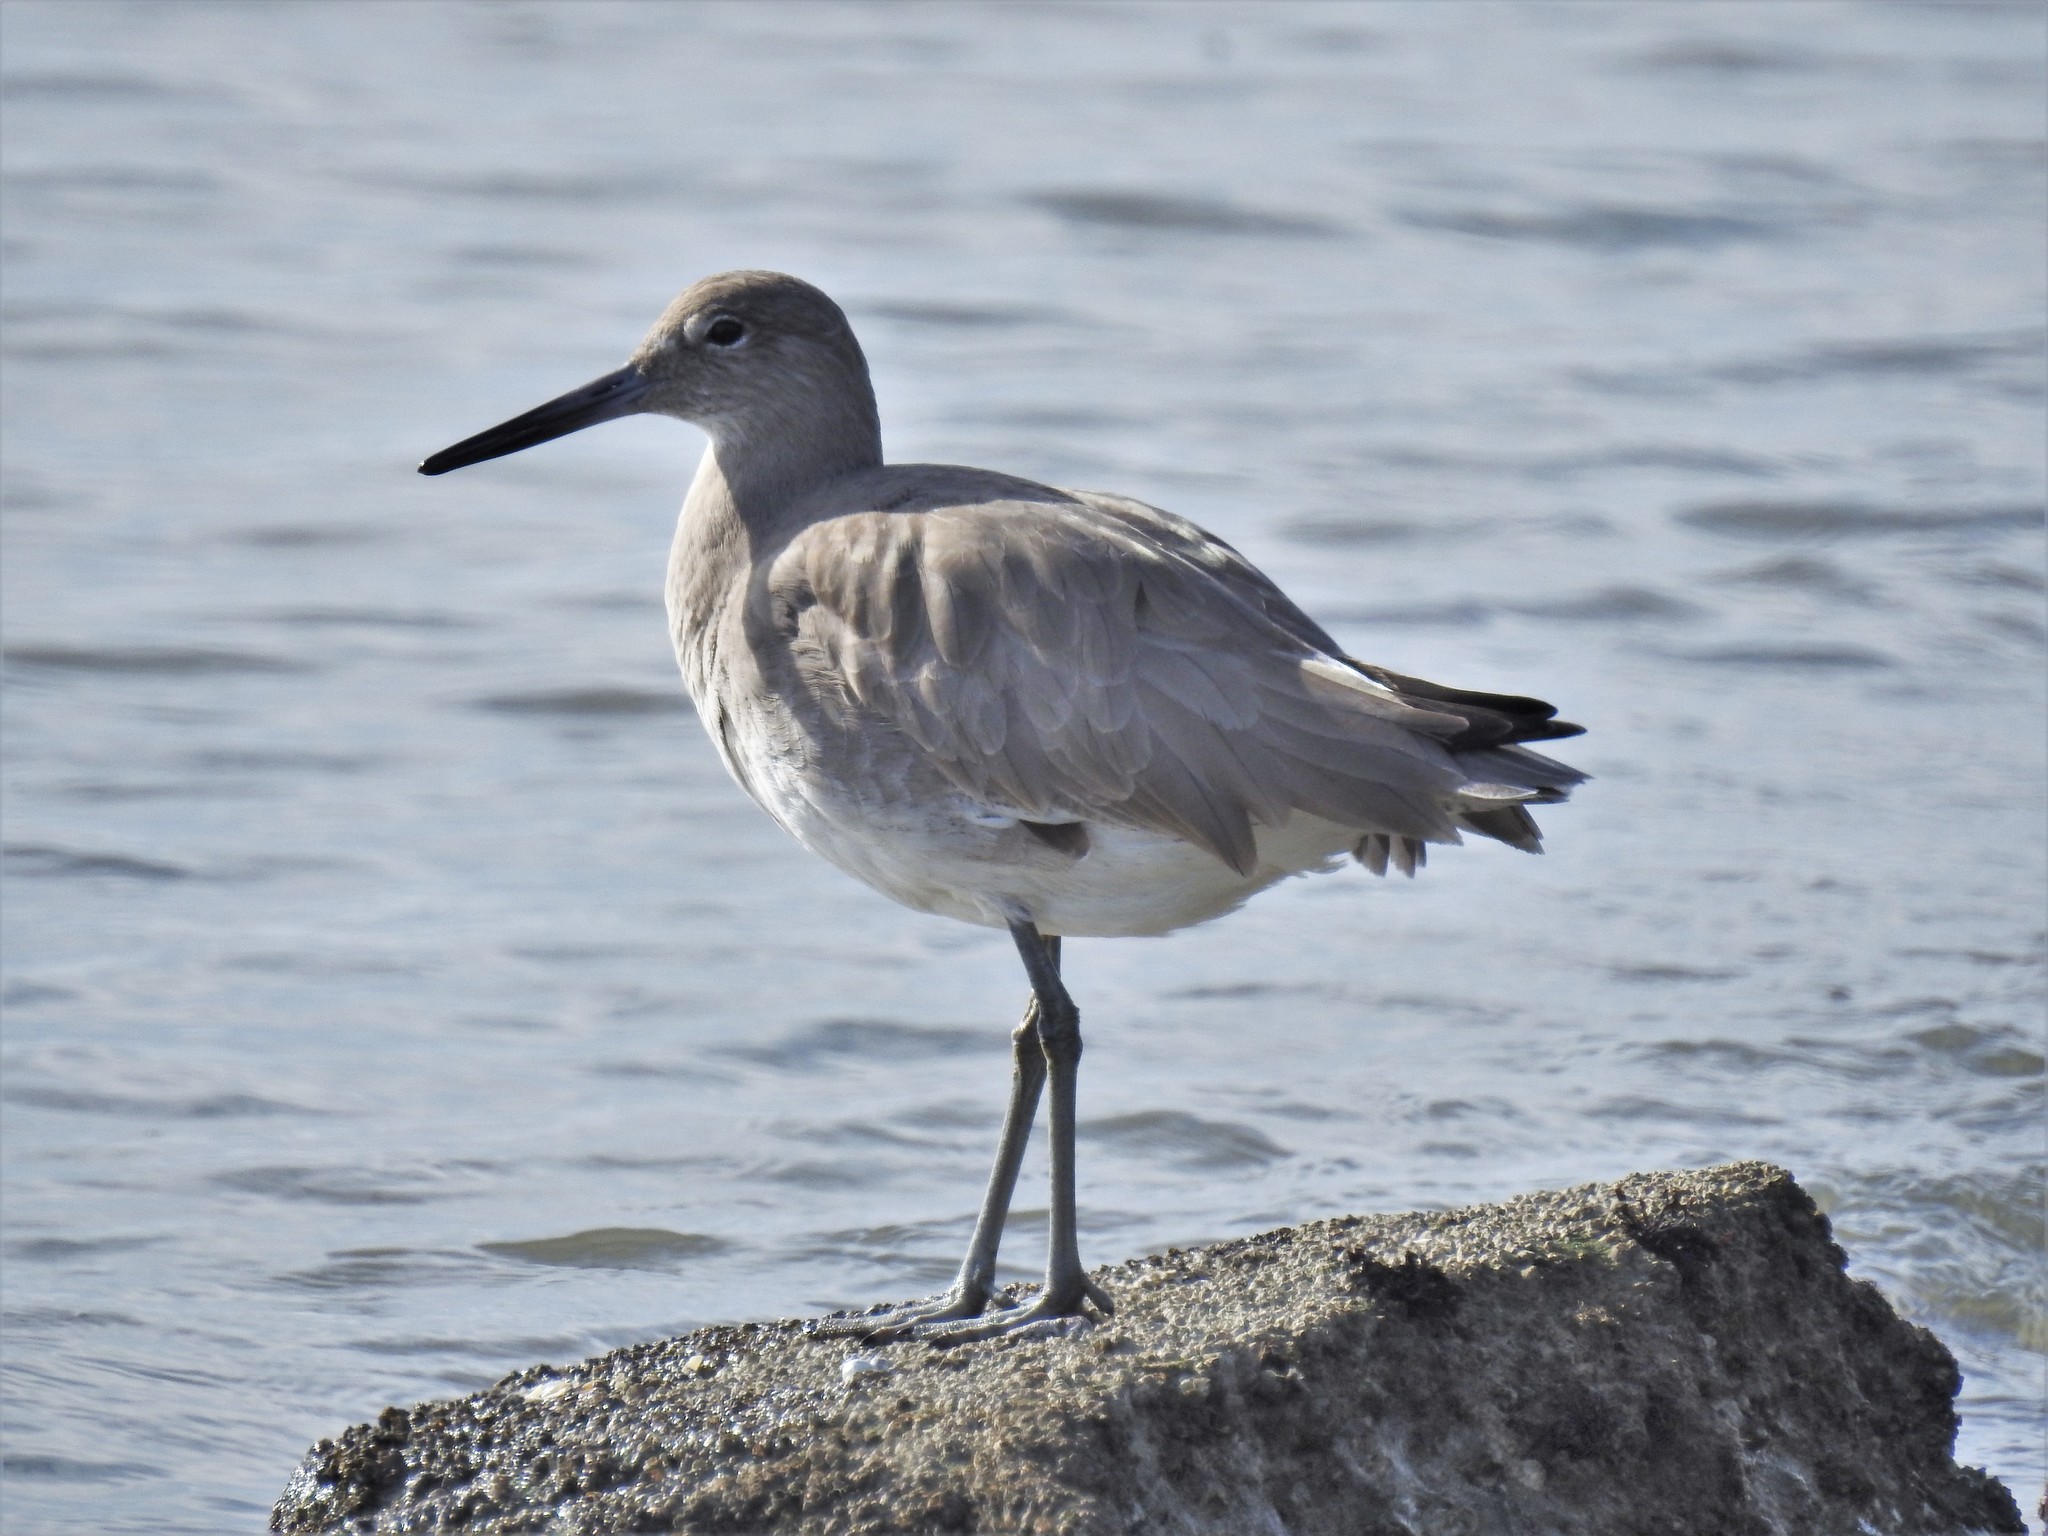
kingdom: Animalia
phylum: Chordata
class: Aves
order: Charadriiformes
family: Scolopacidae
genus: Tringa
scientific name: Tringa semipalmata
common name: Willet
